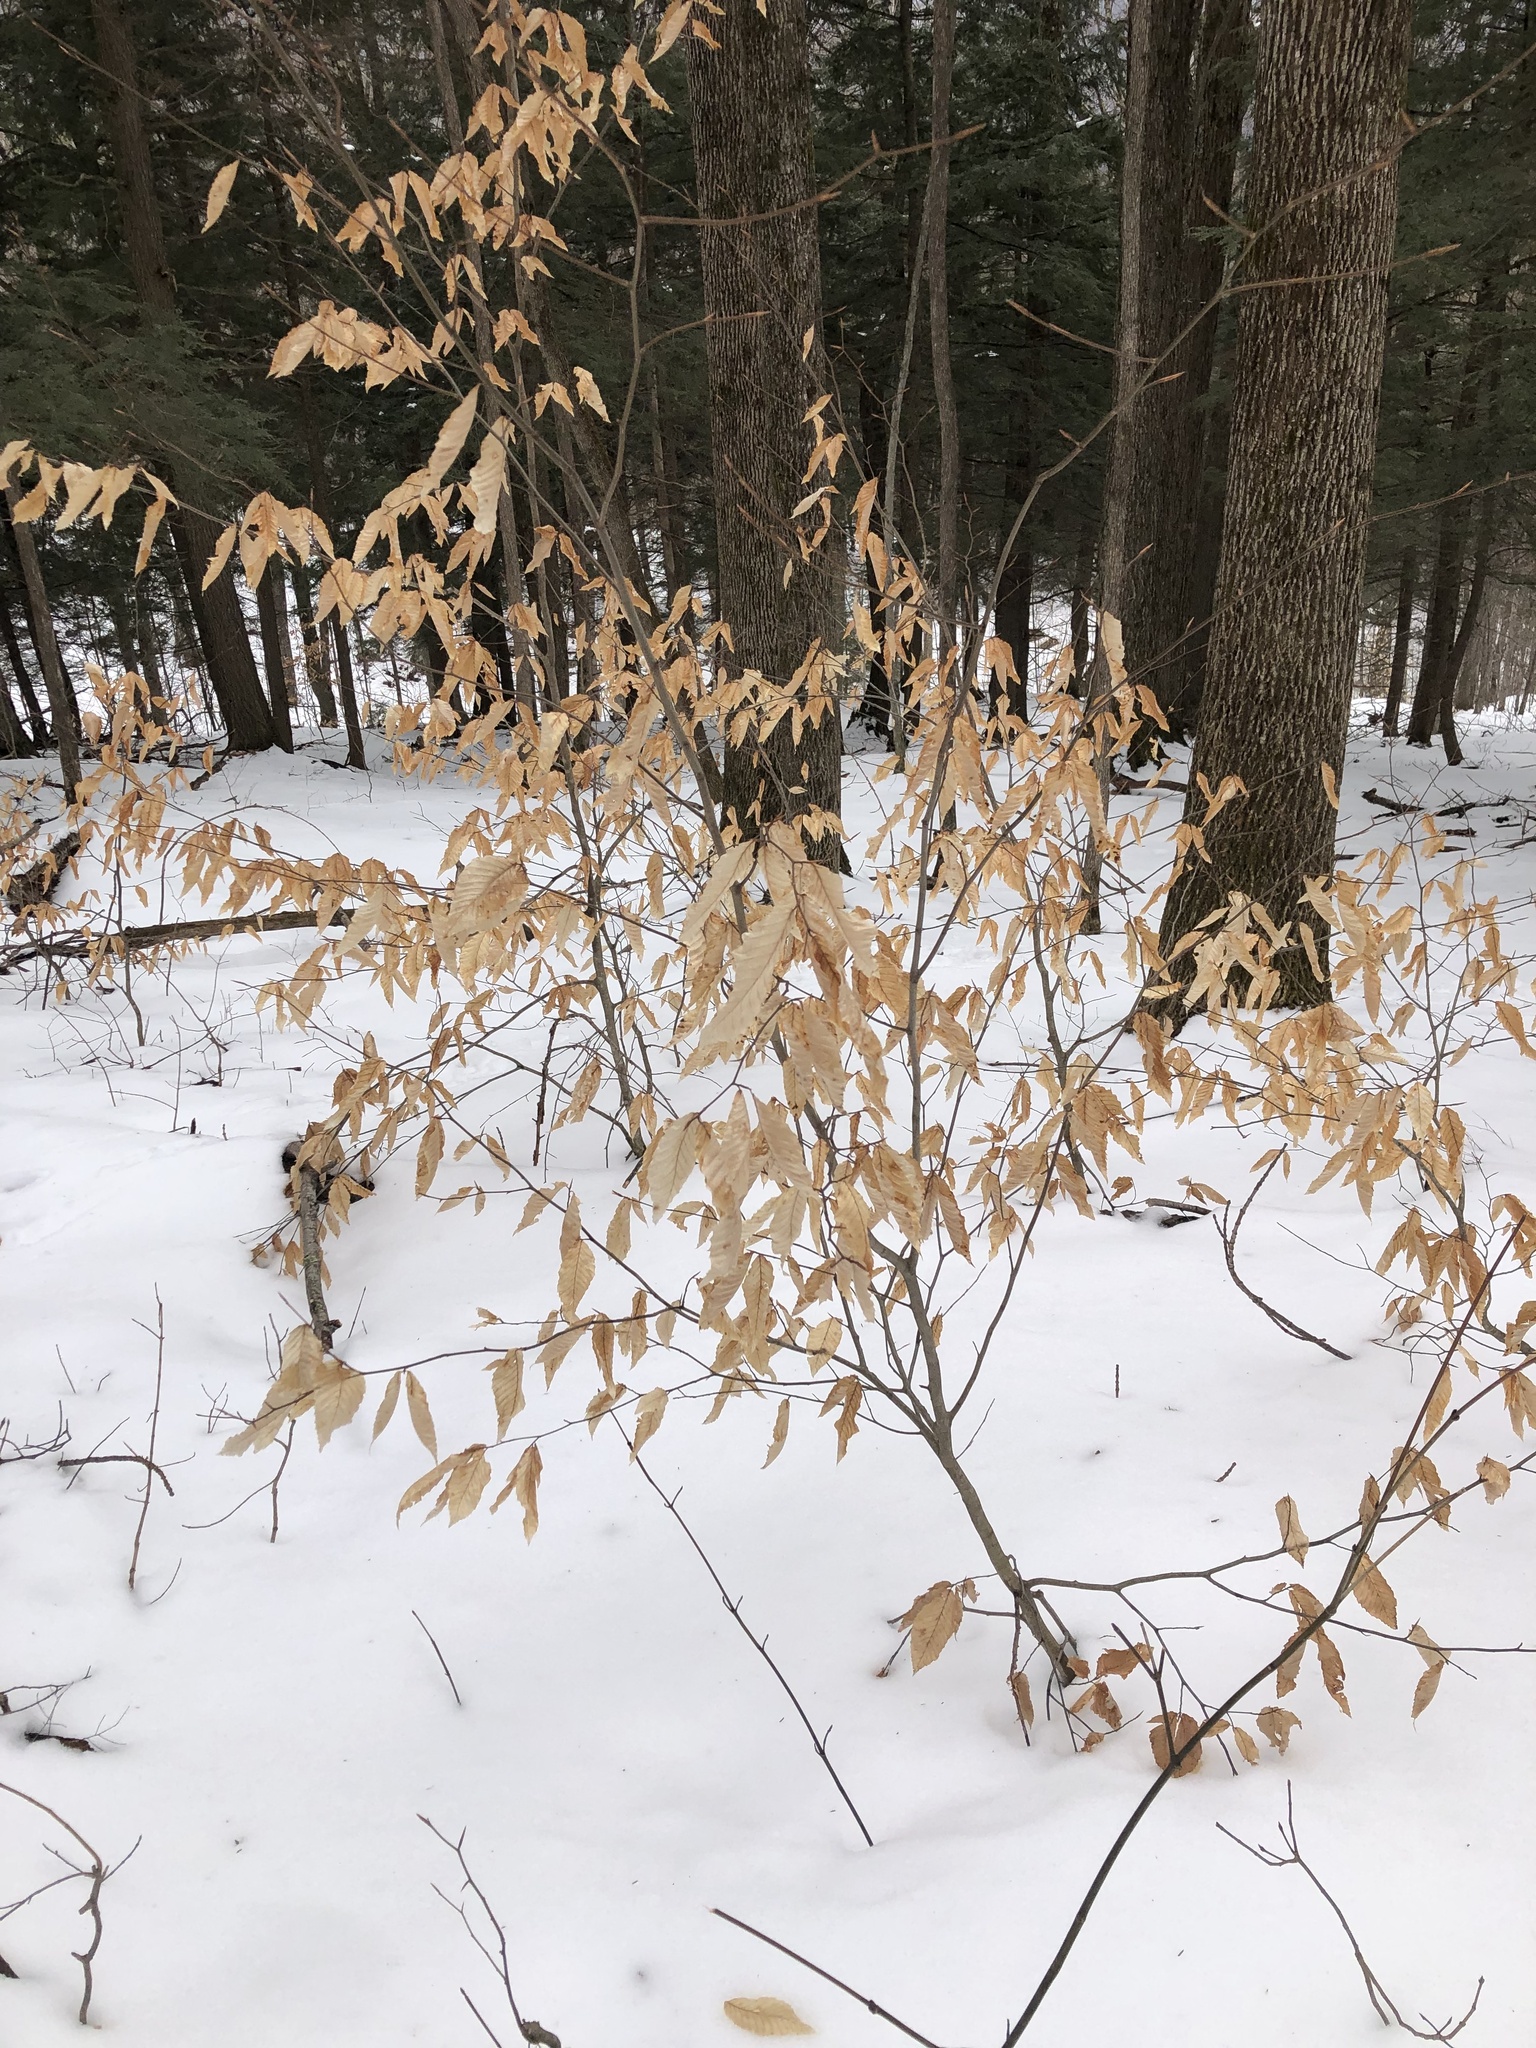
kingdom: Plantae
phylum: Tracheophyta
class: Magnoliopsida
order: Fagales
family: Fagaceae
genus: Fagus
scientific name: Fagus grandifolia
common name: American beech
